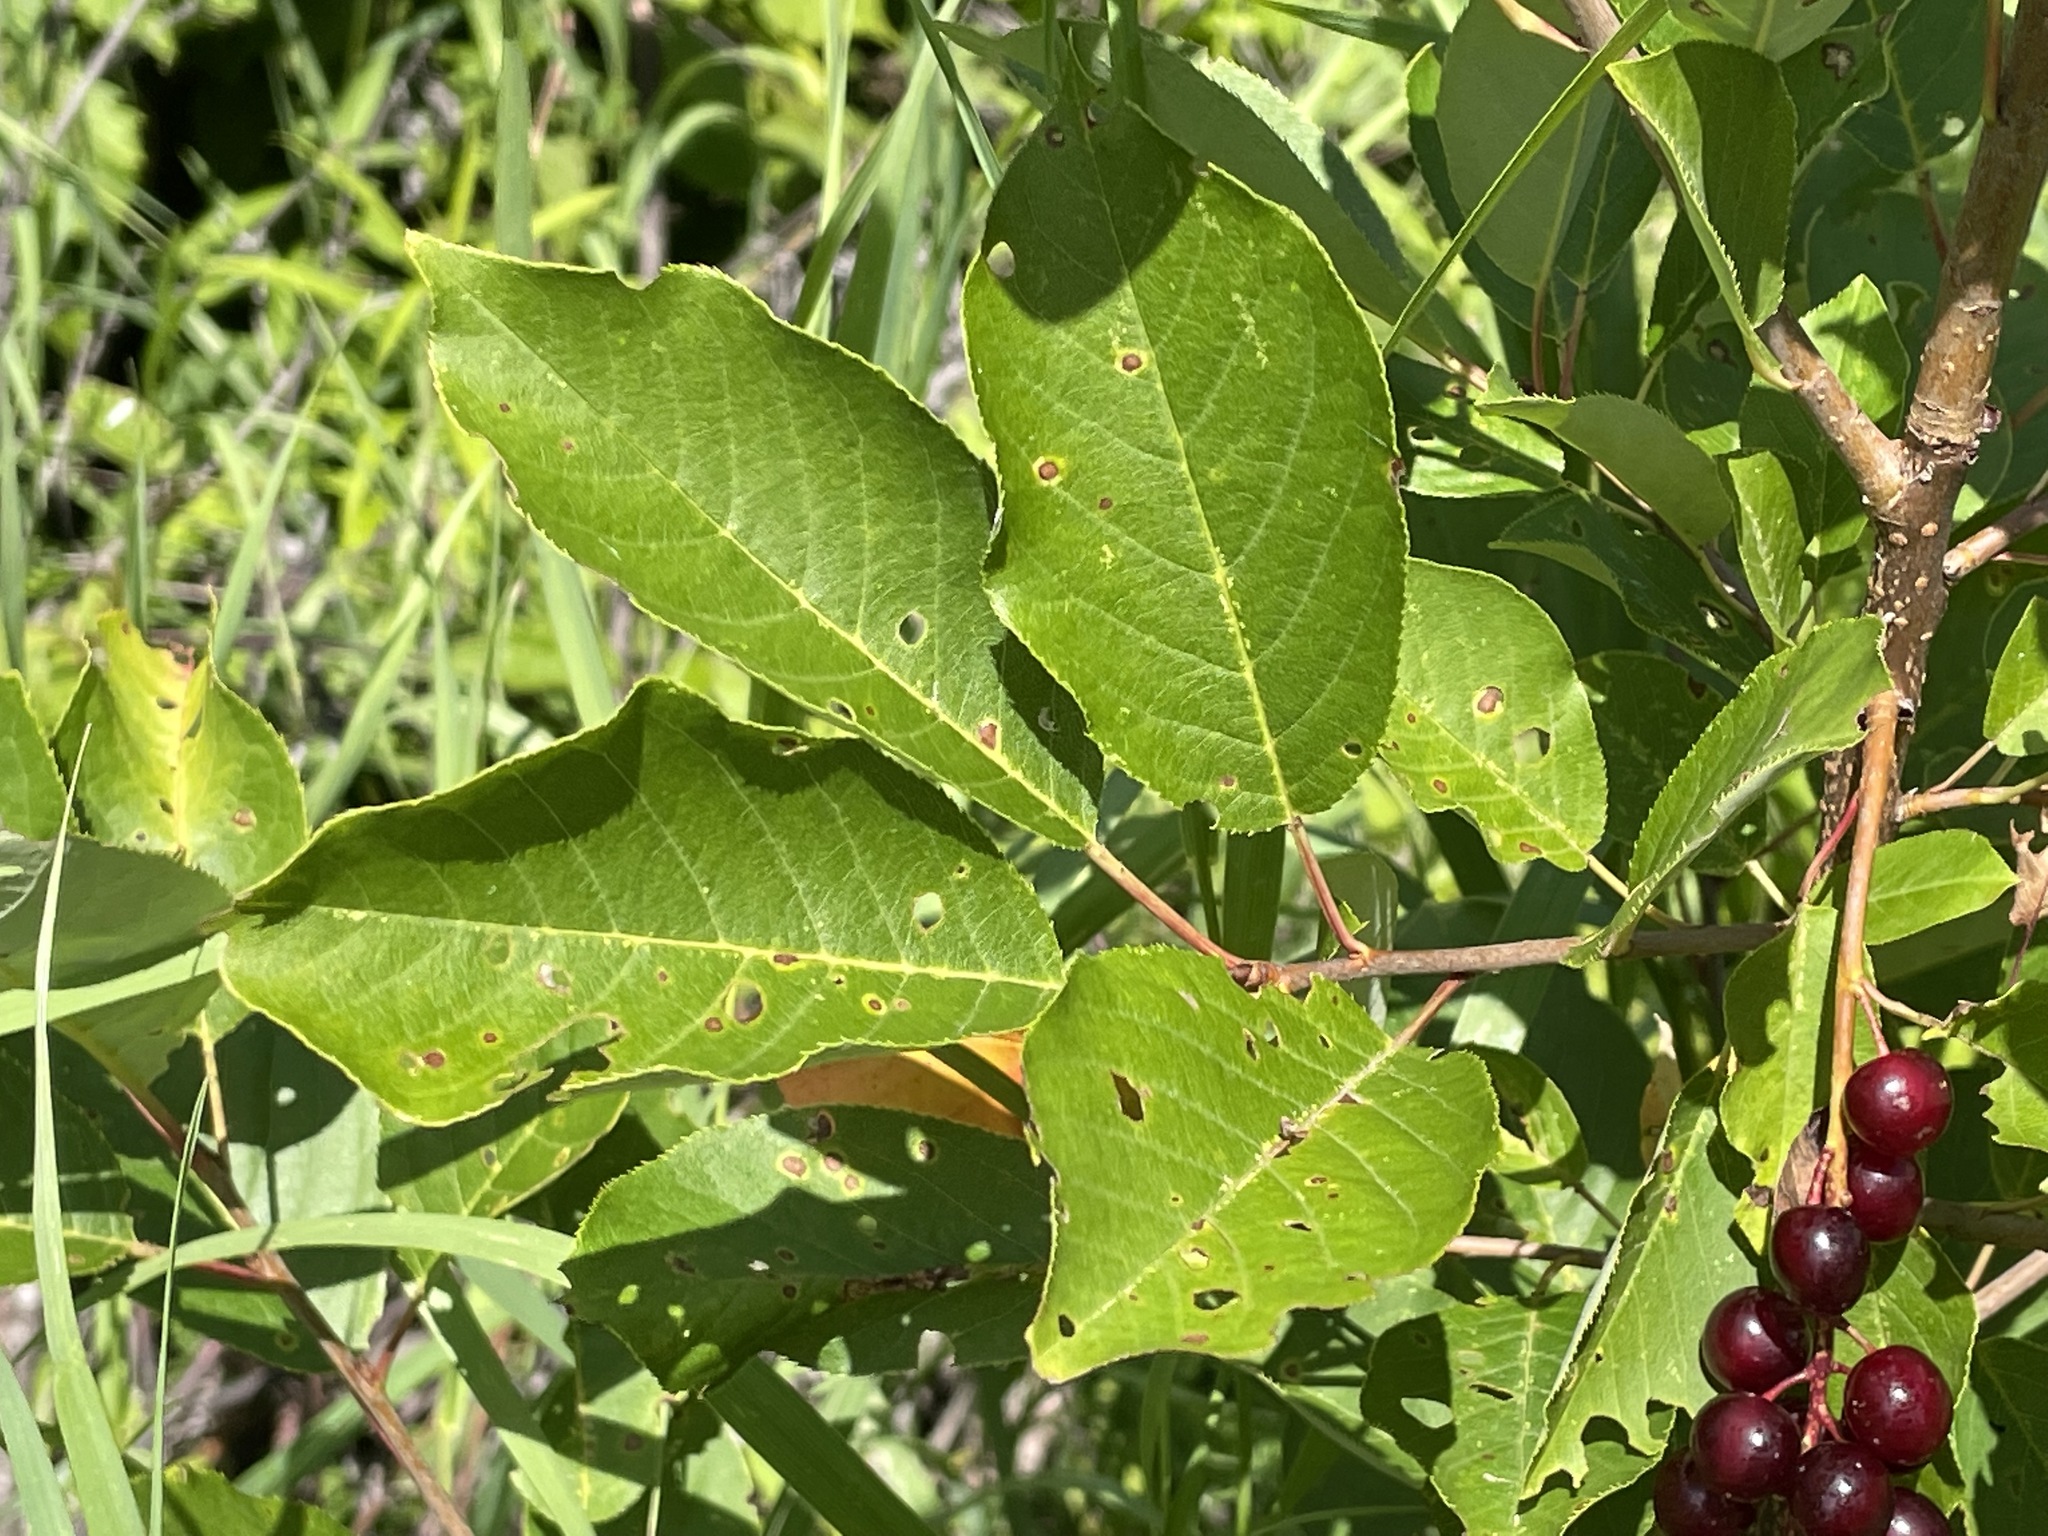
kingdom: Plantae
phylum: Tracheophyta
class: Magnoliopsida
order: Rosales
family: Rosaceae
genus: Prunus
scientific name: Prunus virginiana
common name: Chokecherry
